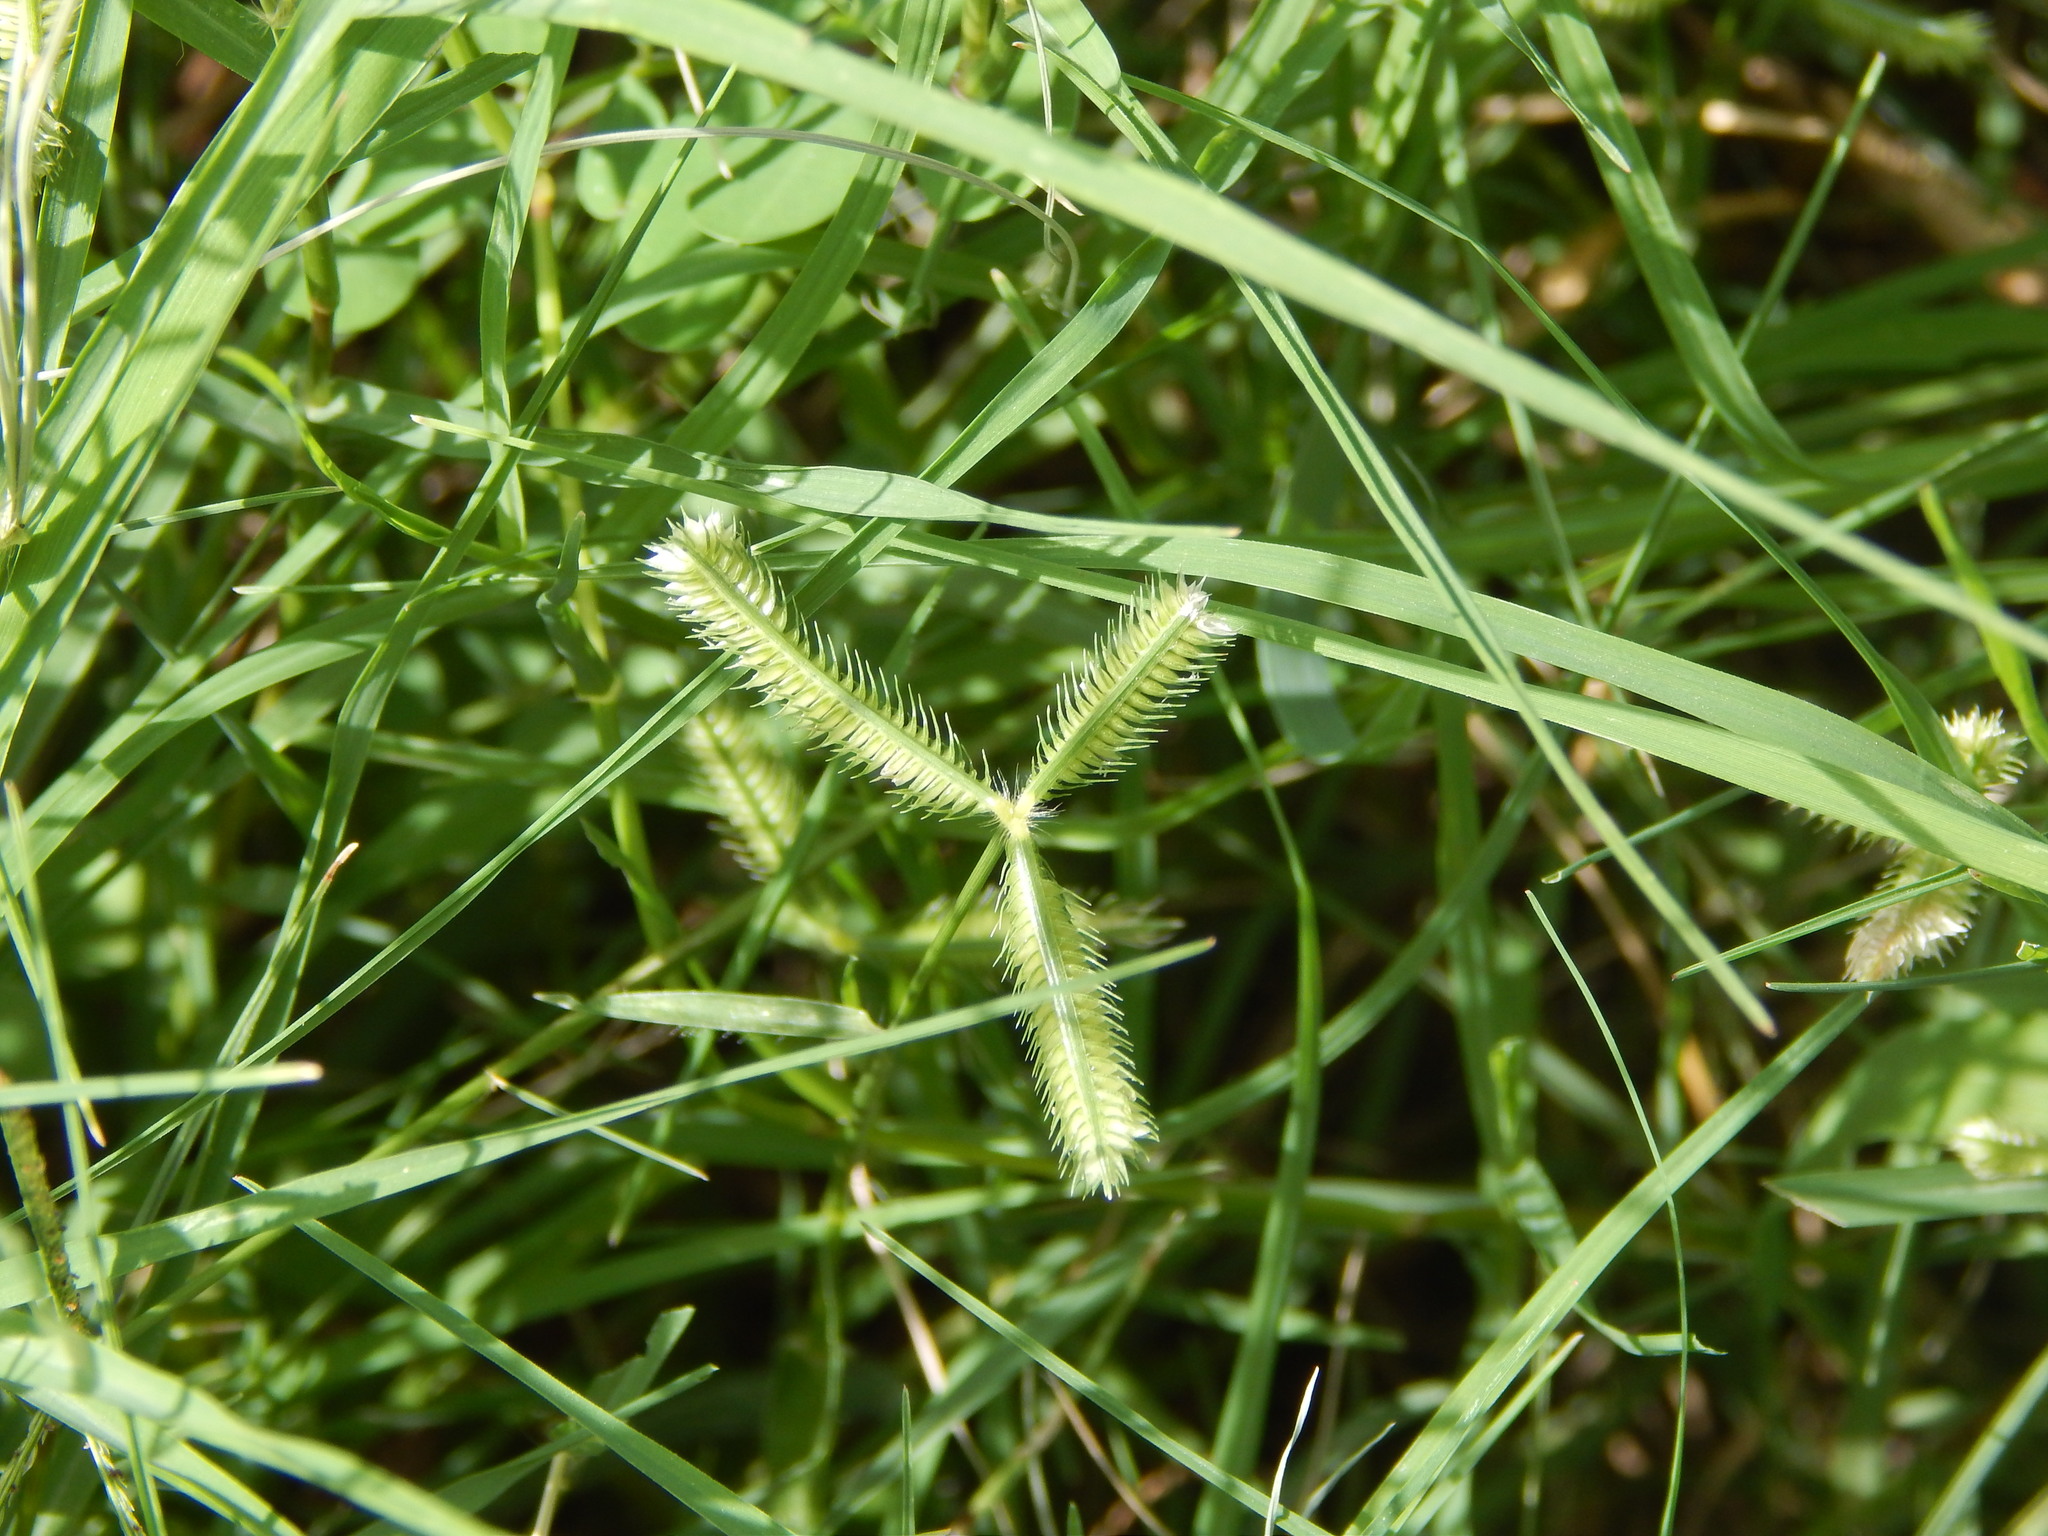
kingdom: Plantae
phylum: Tracheophyta
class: Liliopsida
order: Poales
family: Poaceae
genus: Dactyloctenium
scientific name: Dactyloctenium aegyptium
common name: Egyptian grass
